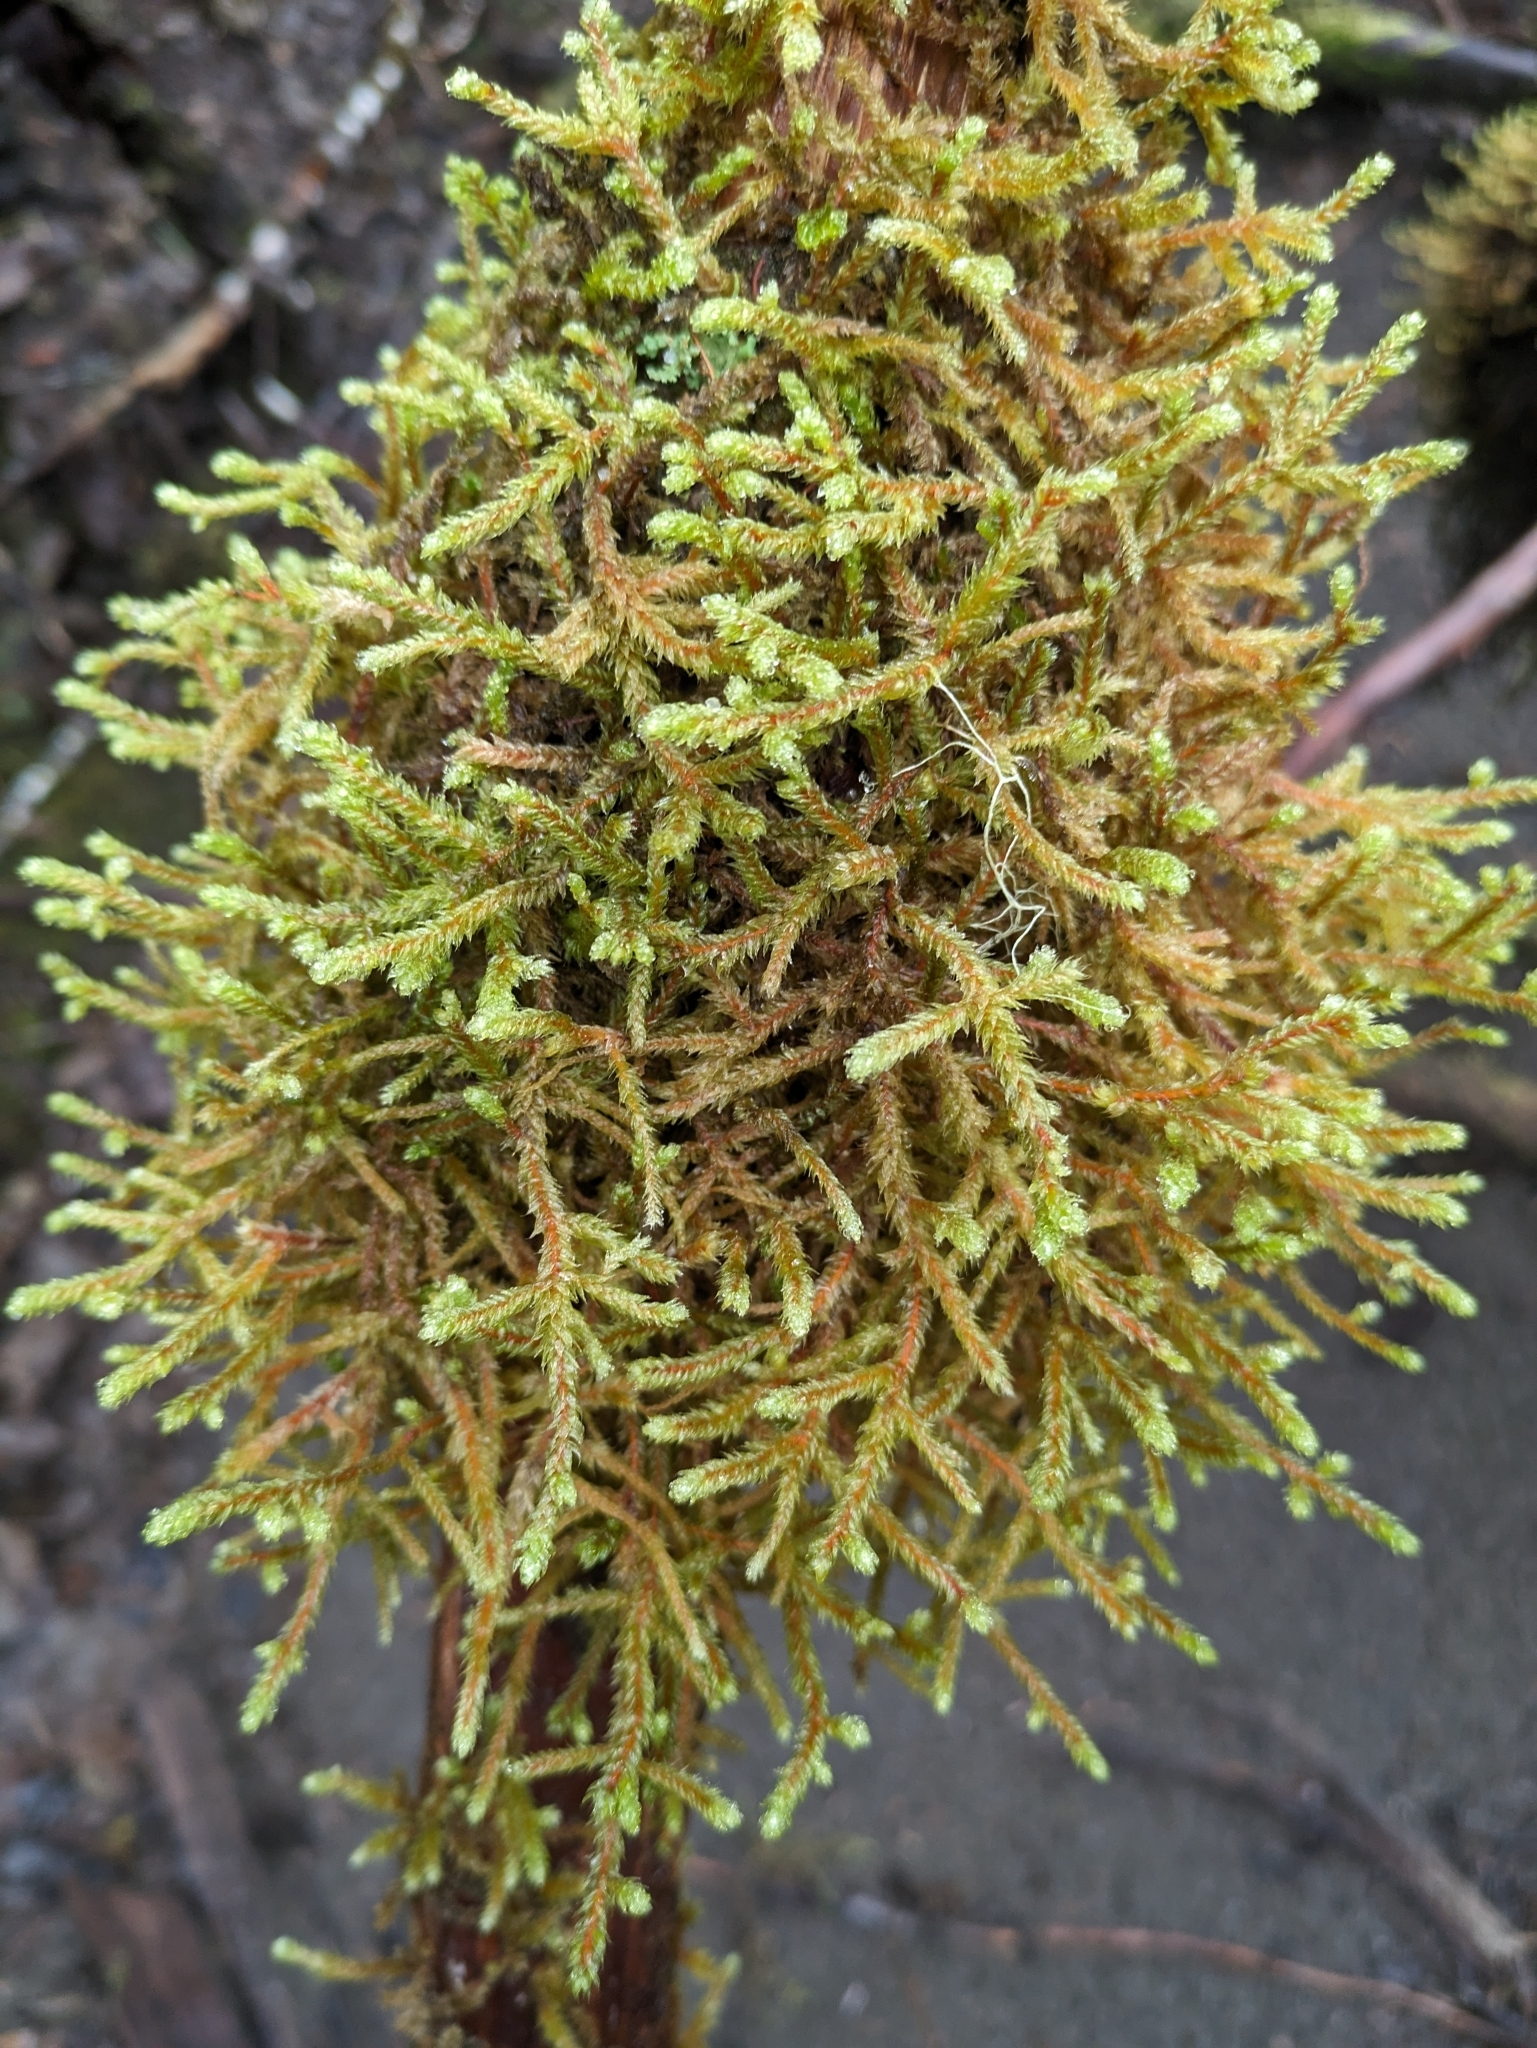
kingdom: Plantae
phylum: Bryophyta
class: Bryopsida
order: Hypnales
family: Antitrichiaceae
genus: Antitrichia
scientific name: Antitrichia curtipendula
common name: Pendulous wing-moss
